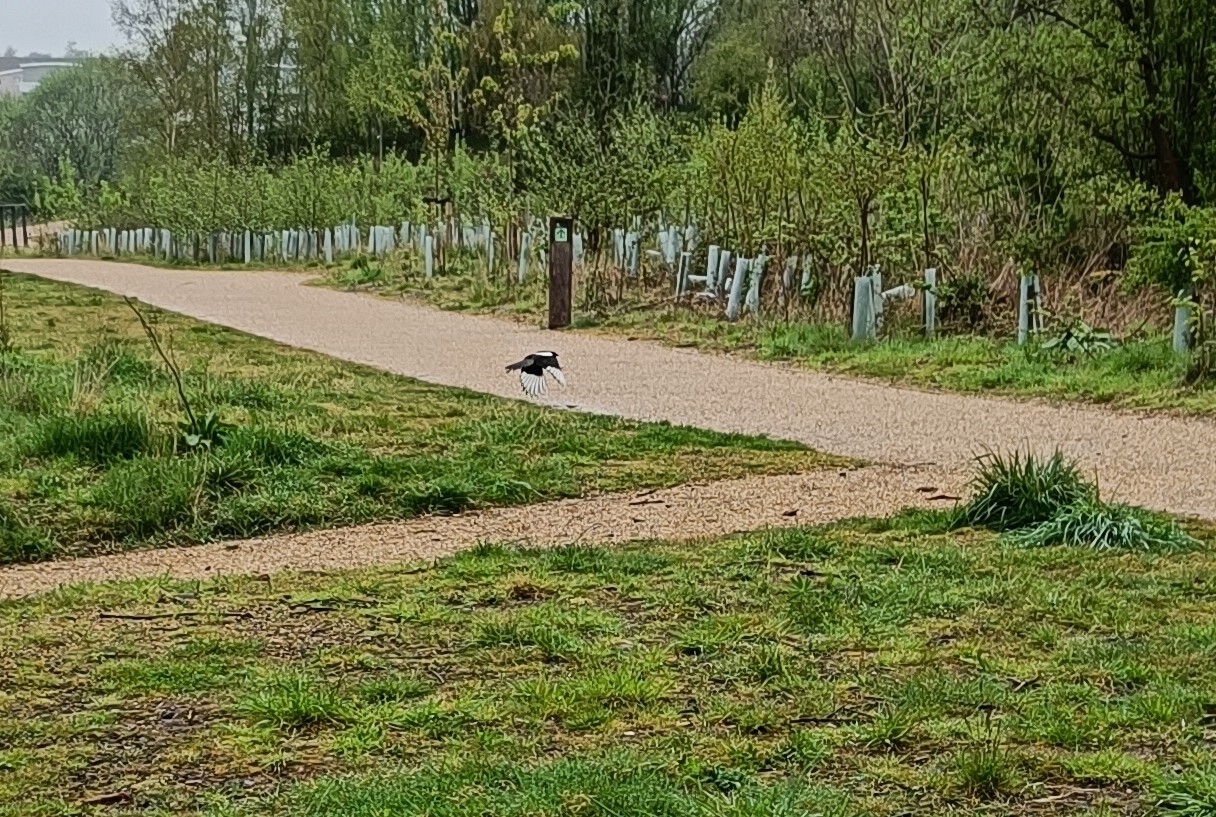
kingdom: Animalia
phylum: Chordata
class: Aves
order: Passeriformes
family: Corvidae
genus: Pica
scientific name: Pica pica
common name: Eurasian magpie
